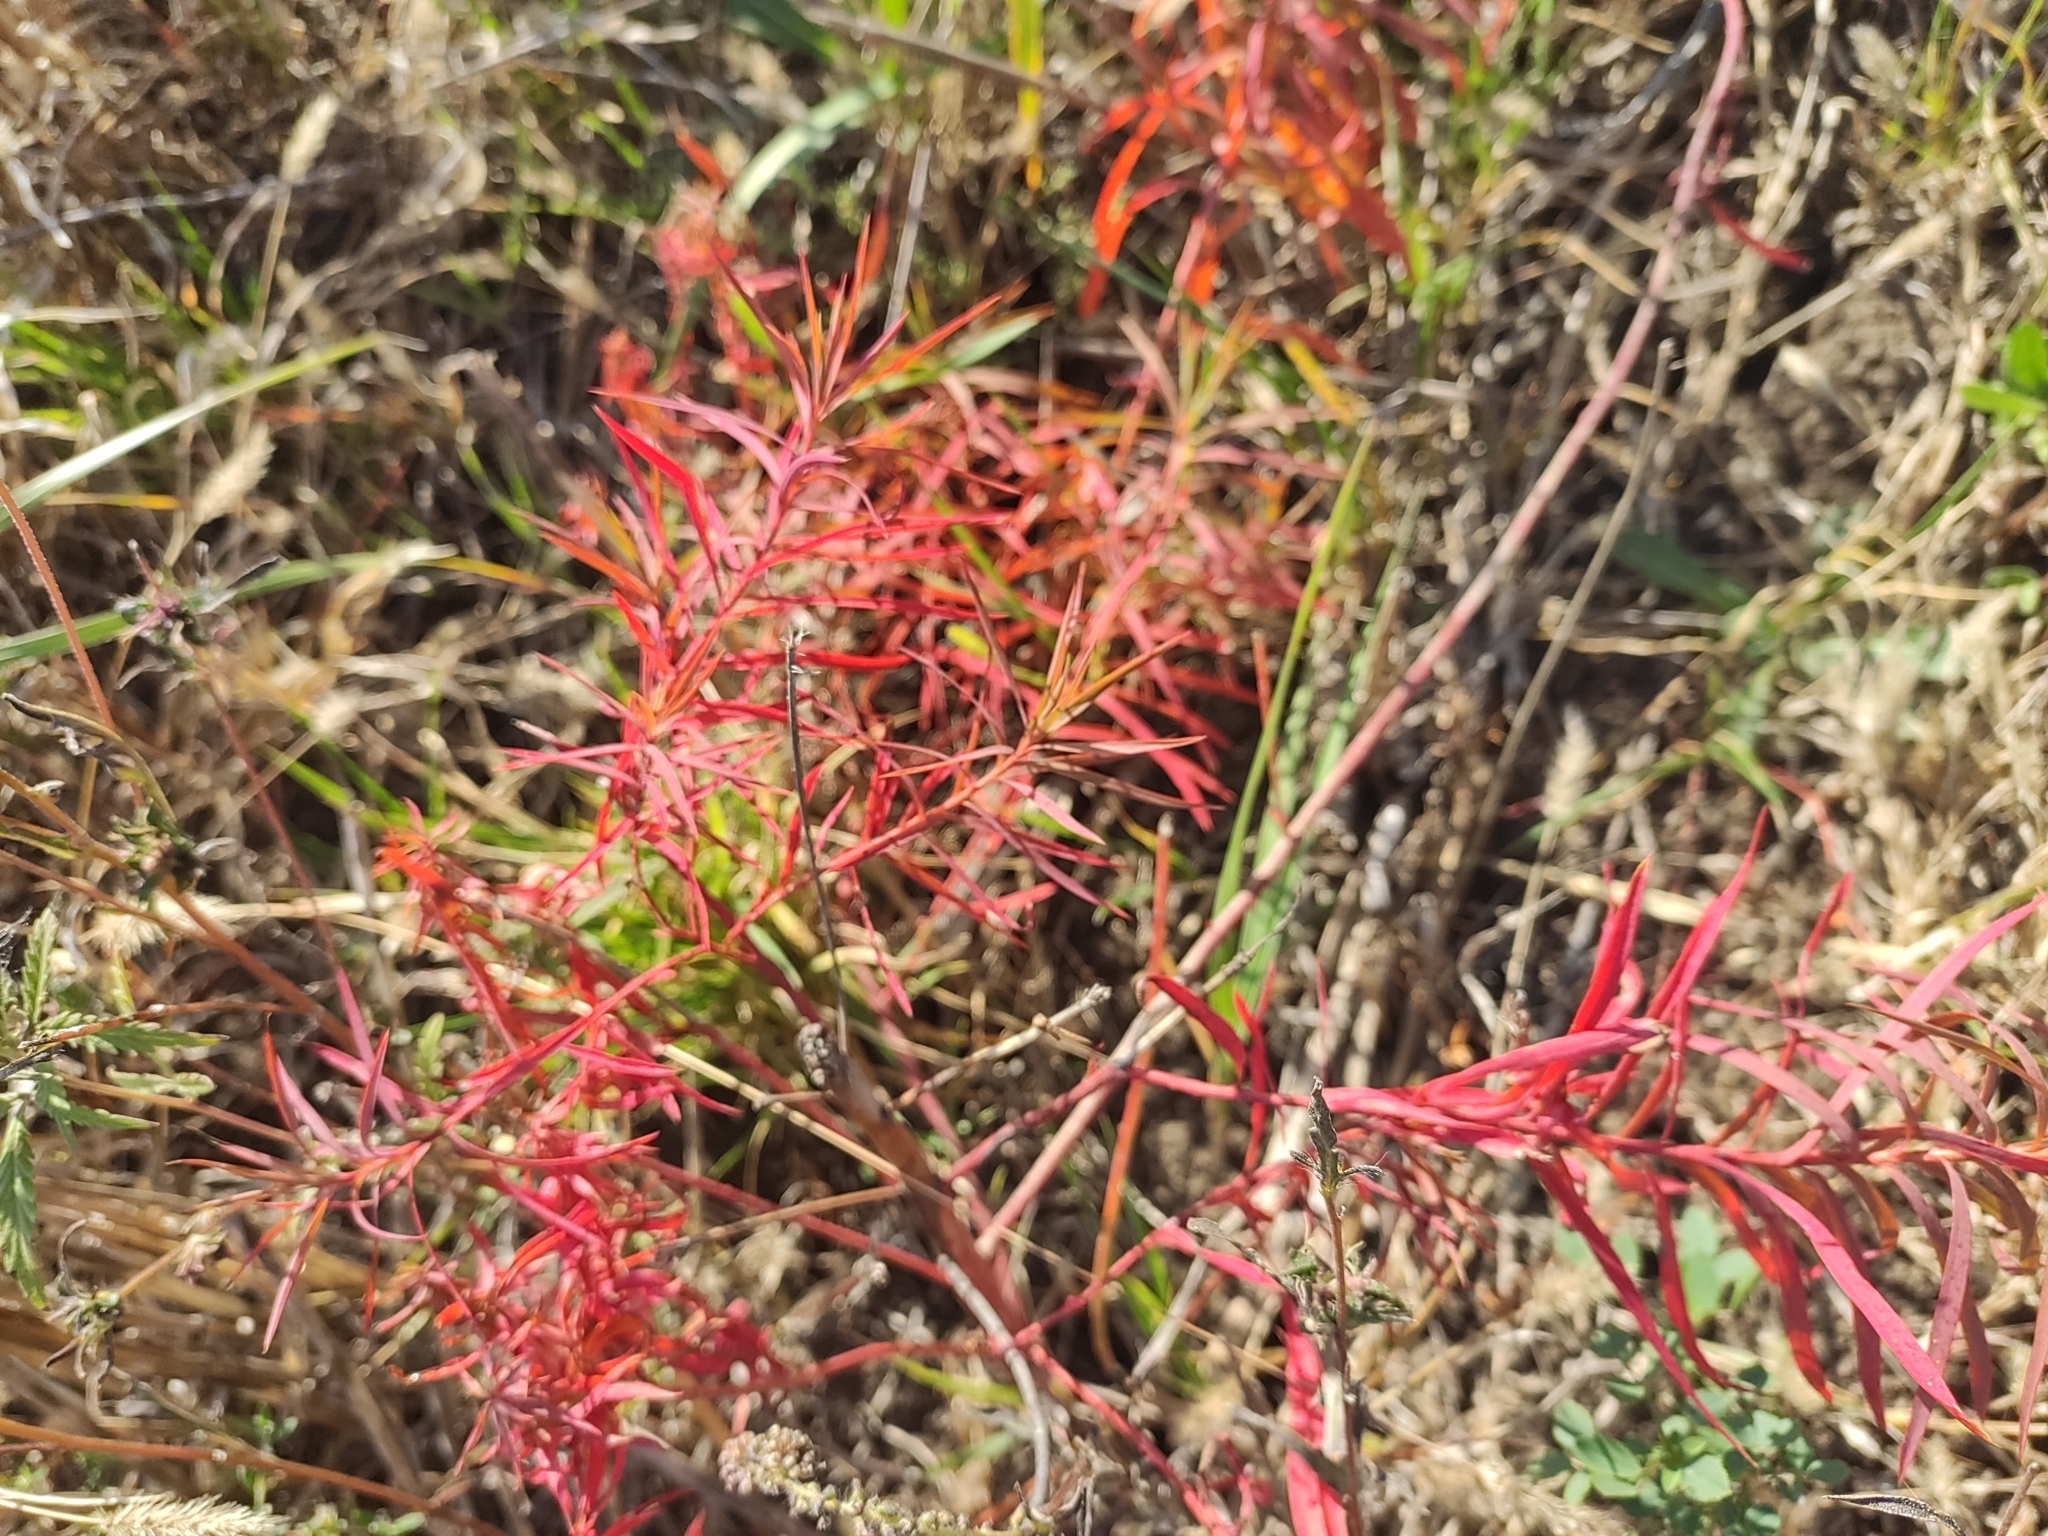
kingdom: Plantae
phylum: Tracheophyta
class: Magnoliopsida
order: Malpighiales
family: Euphorbiaceae
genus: Euphorbia
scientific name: Euphorbia seguieriana
